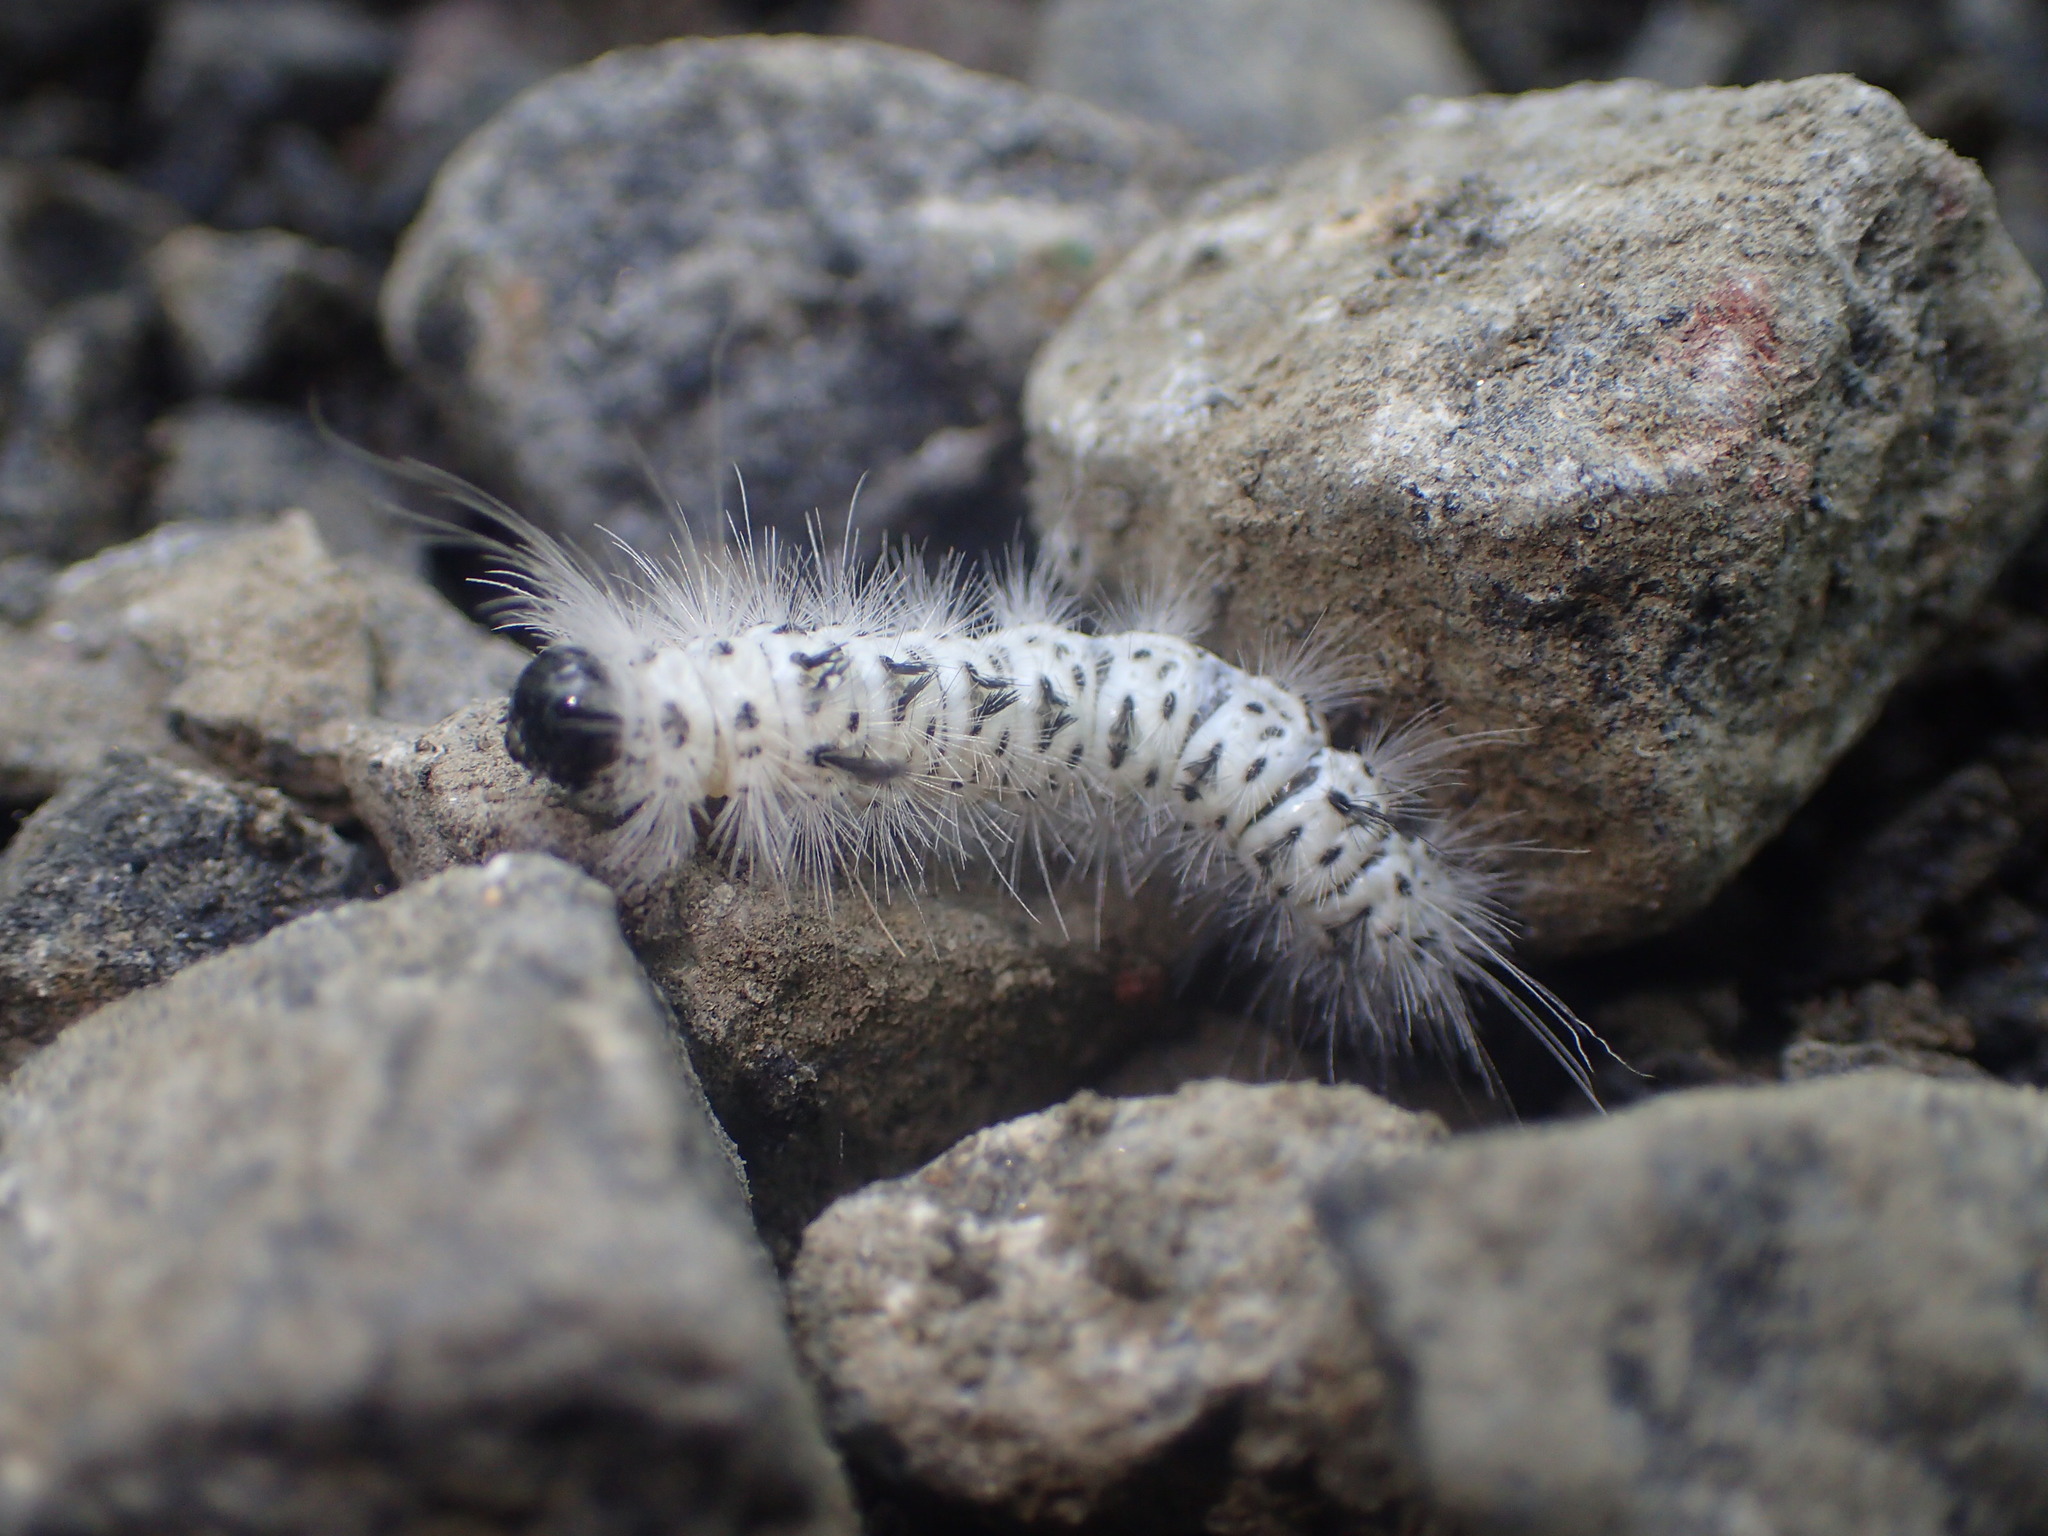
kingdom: Animalia
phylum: Arthropoda
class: Insecta
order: Lepidoptera
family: Erebidae
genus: Lophocampa
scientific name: Lophocampa caryae
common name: Hickory tussock moth
